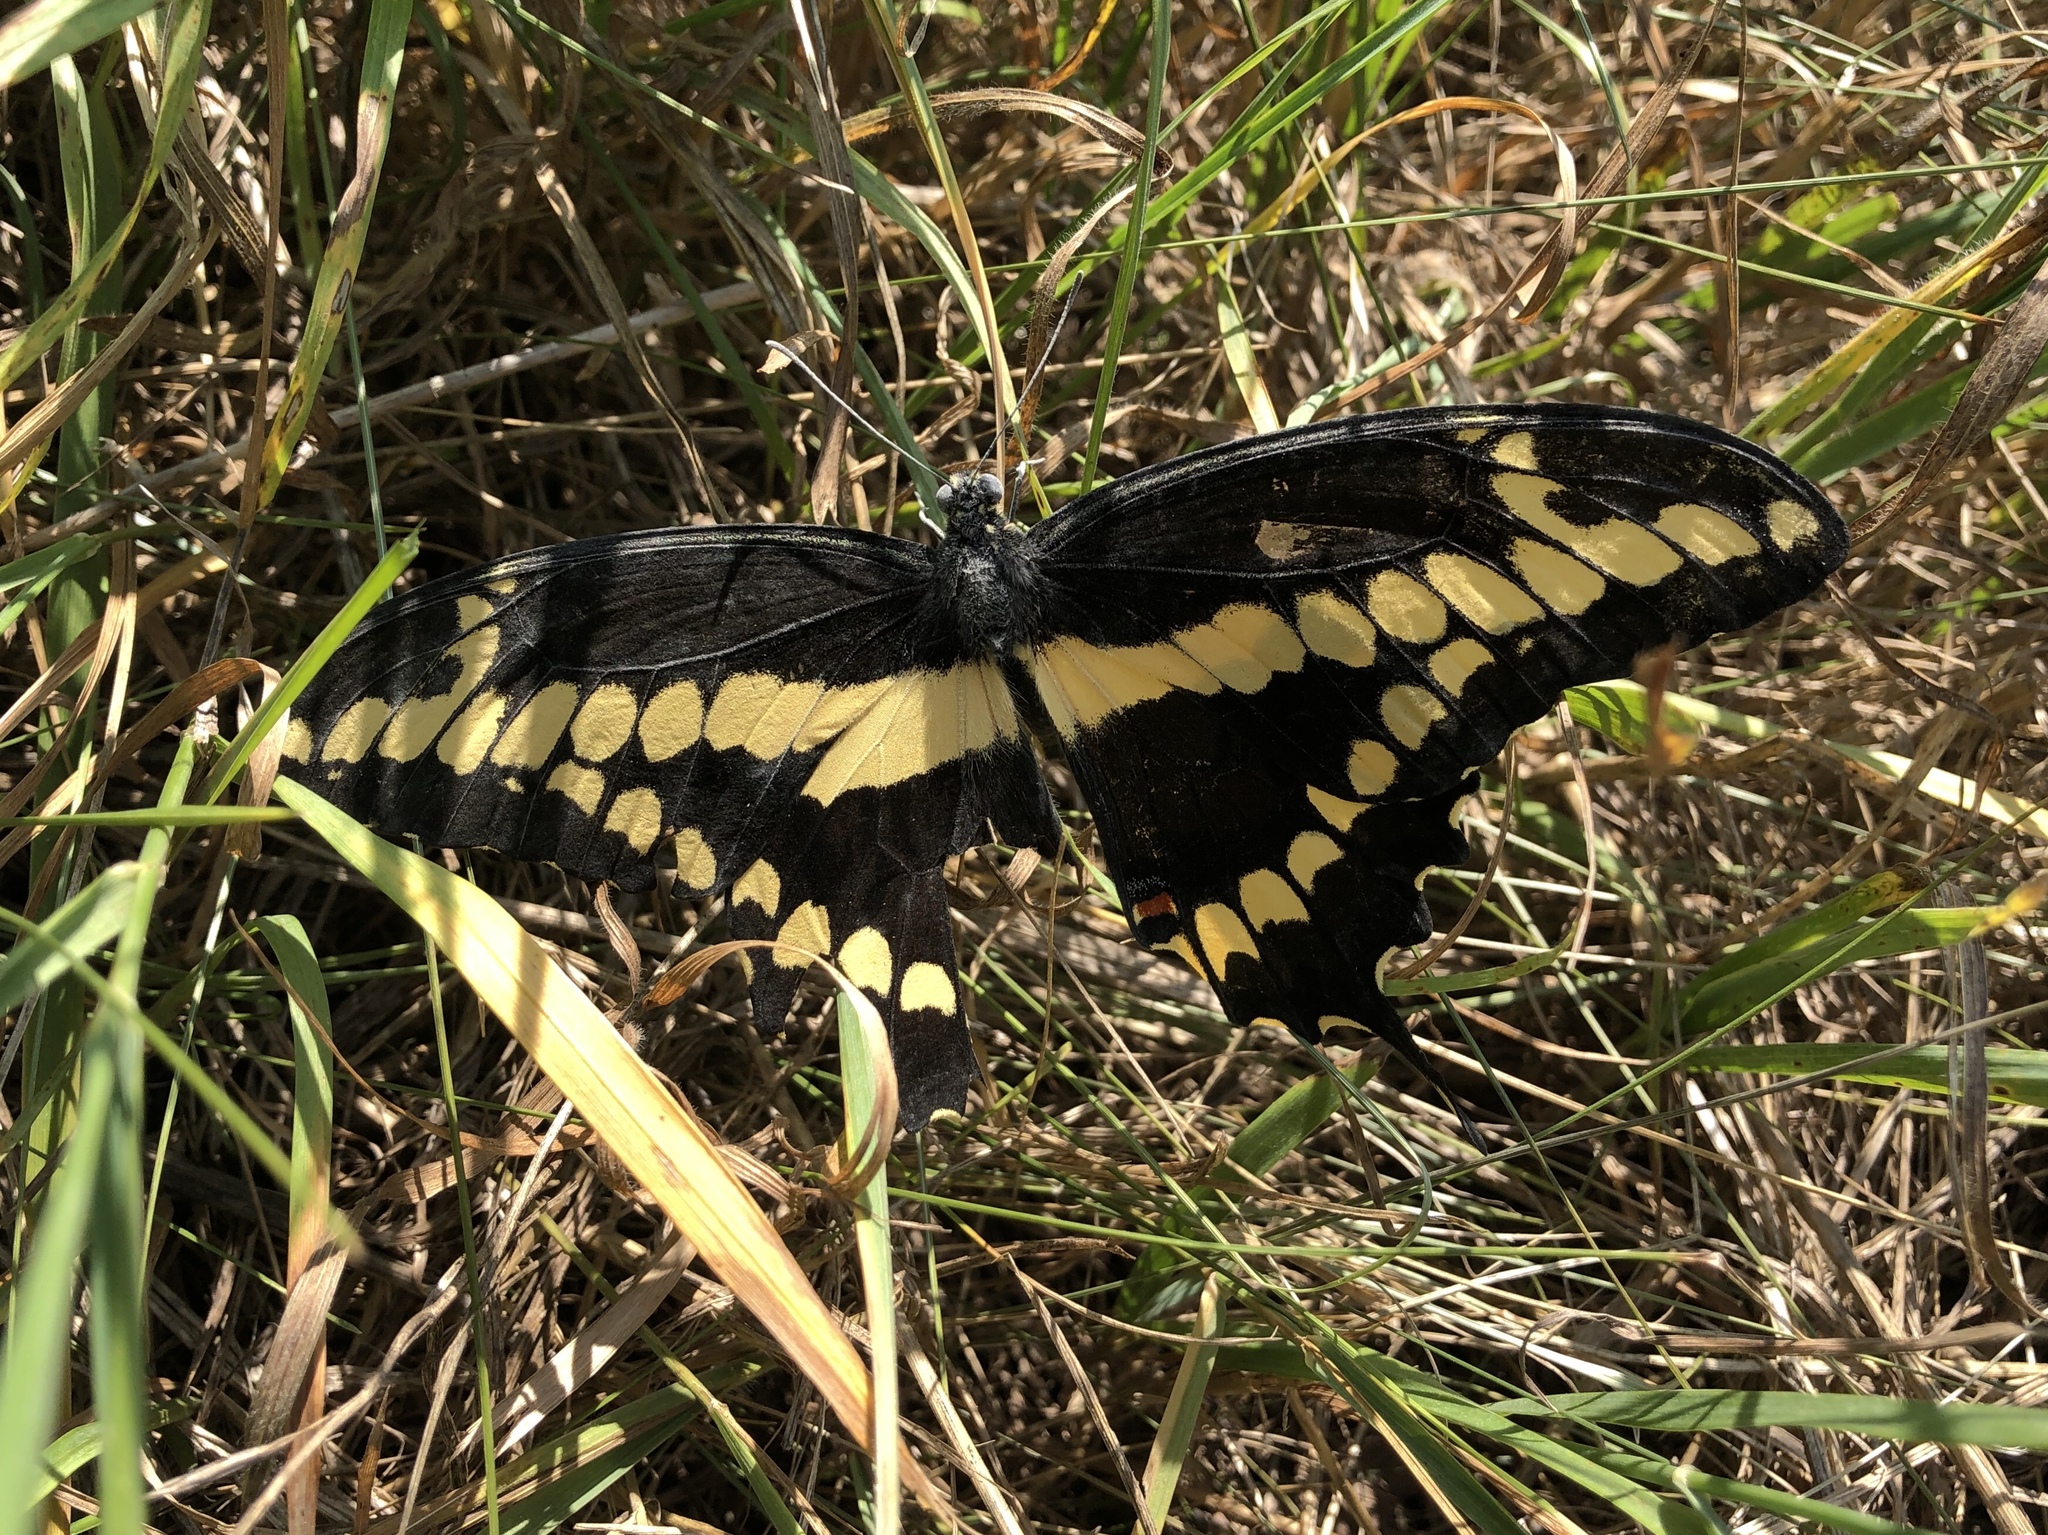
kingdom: Animalia
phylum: Arthropoda
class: Insecta
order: Lepidoptera
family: Papilionidae
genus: Papilio
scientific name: Papilio cresphontes
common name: Giant swallowtail
